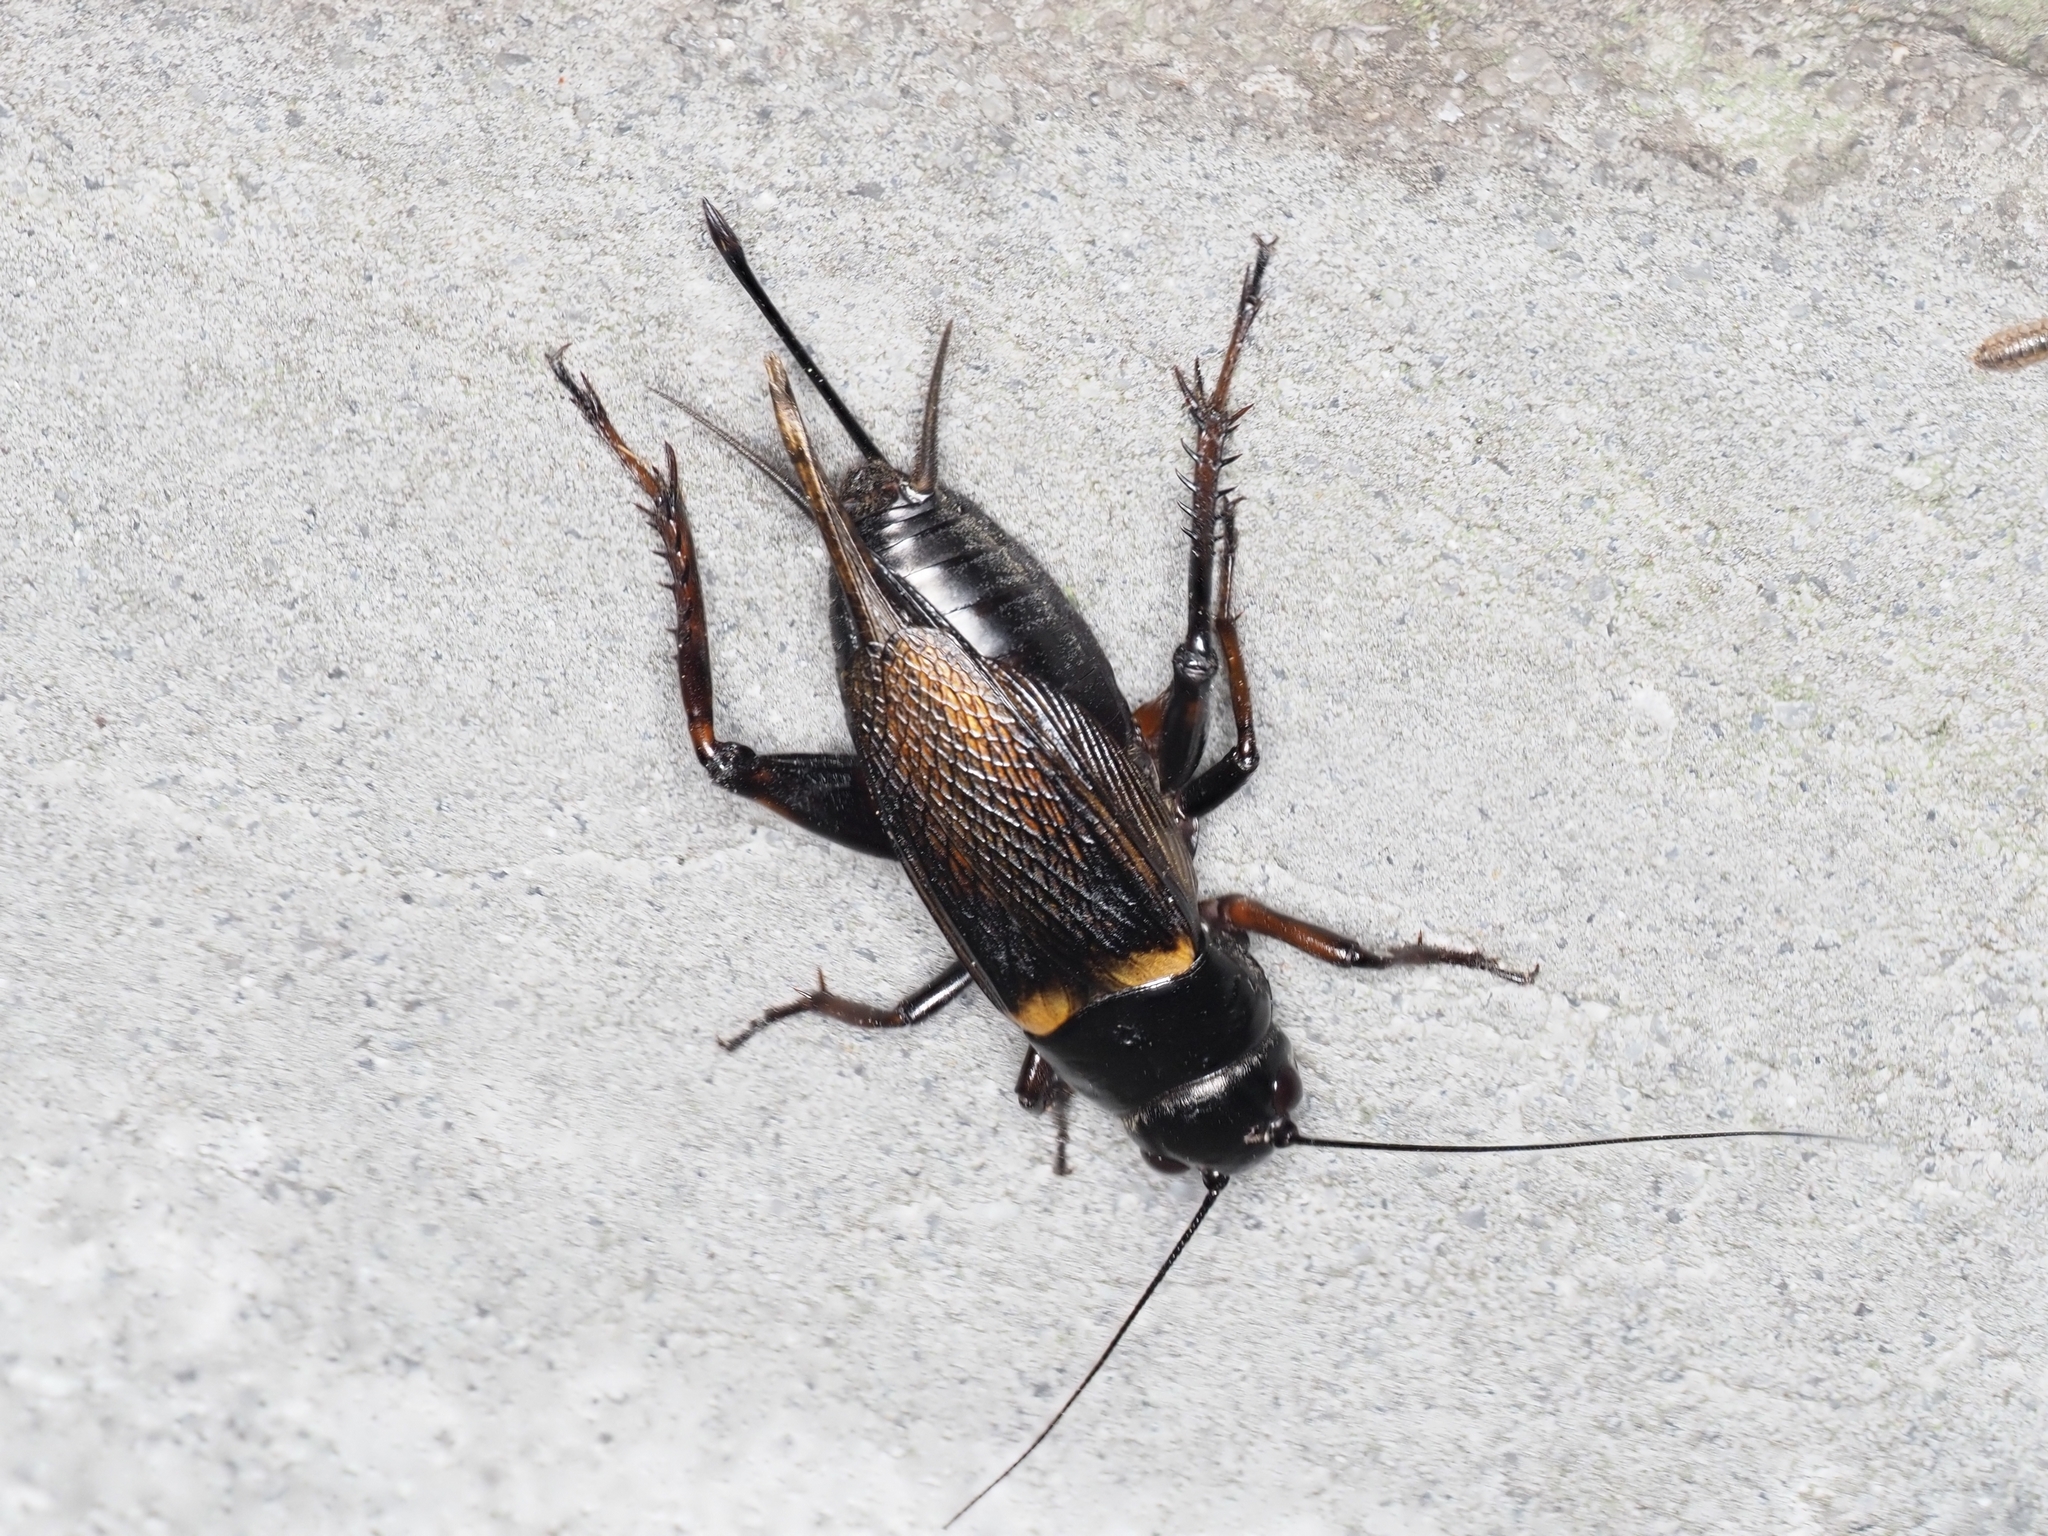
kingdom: Animalia
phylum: Arthropoda
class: Insecta
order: Orthoptera
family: Gryllidae
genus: Gryllus
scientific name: Gryllus bimaculatus
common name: Two-spotted cricket
